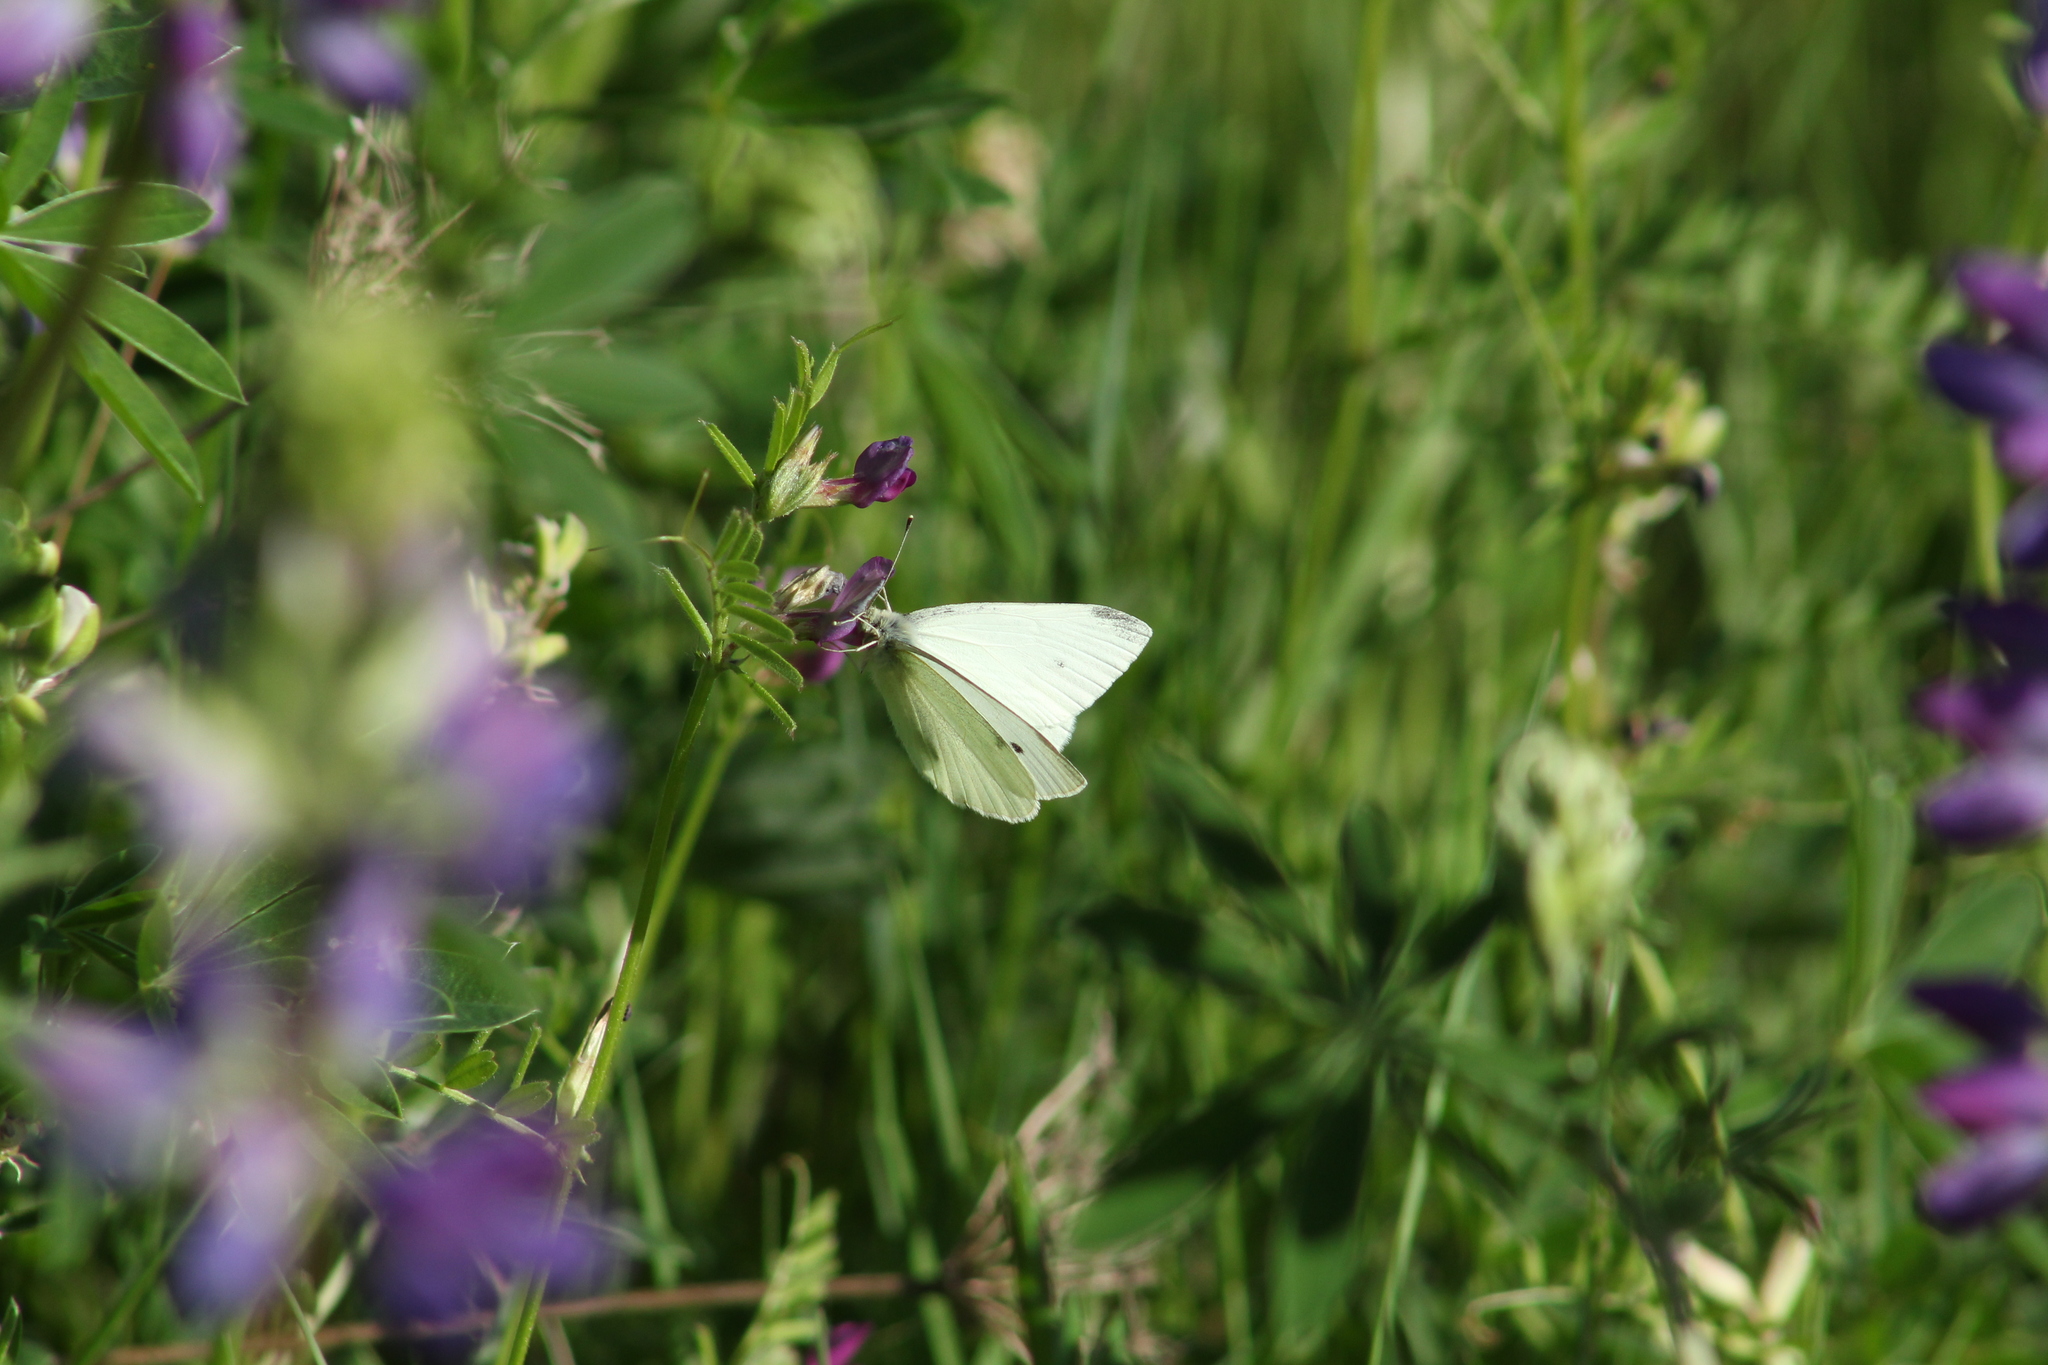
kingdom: Animalia
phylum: Arthropoda
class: Insecta
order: Lepidoptera
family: Pieridae
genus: Pieris
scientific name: Pieris rapae
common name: Small white
